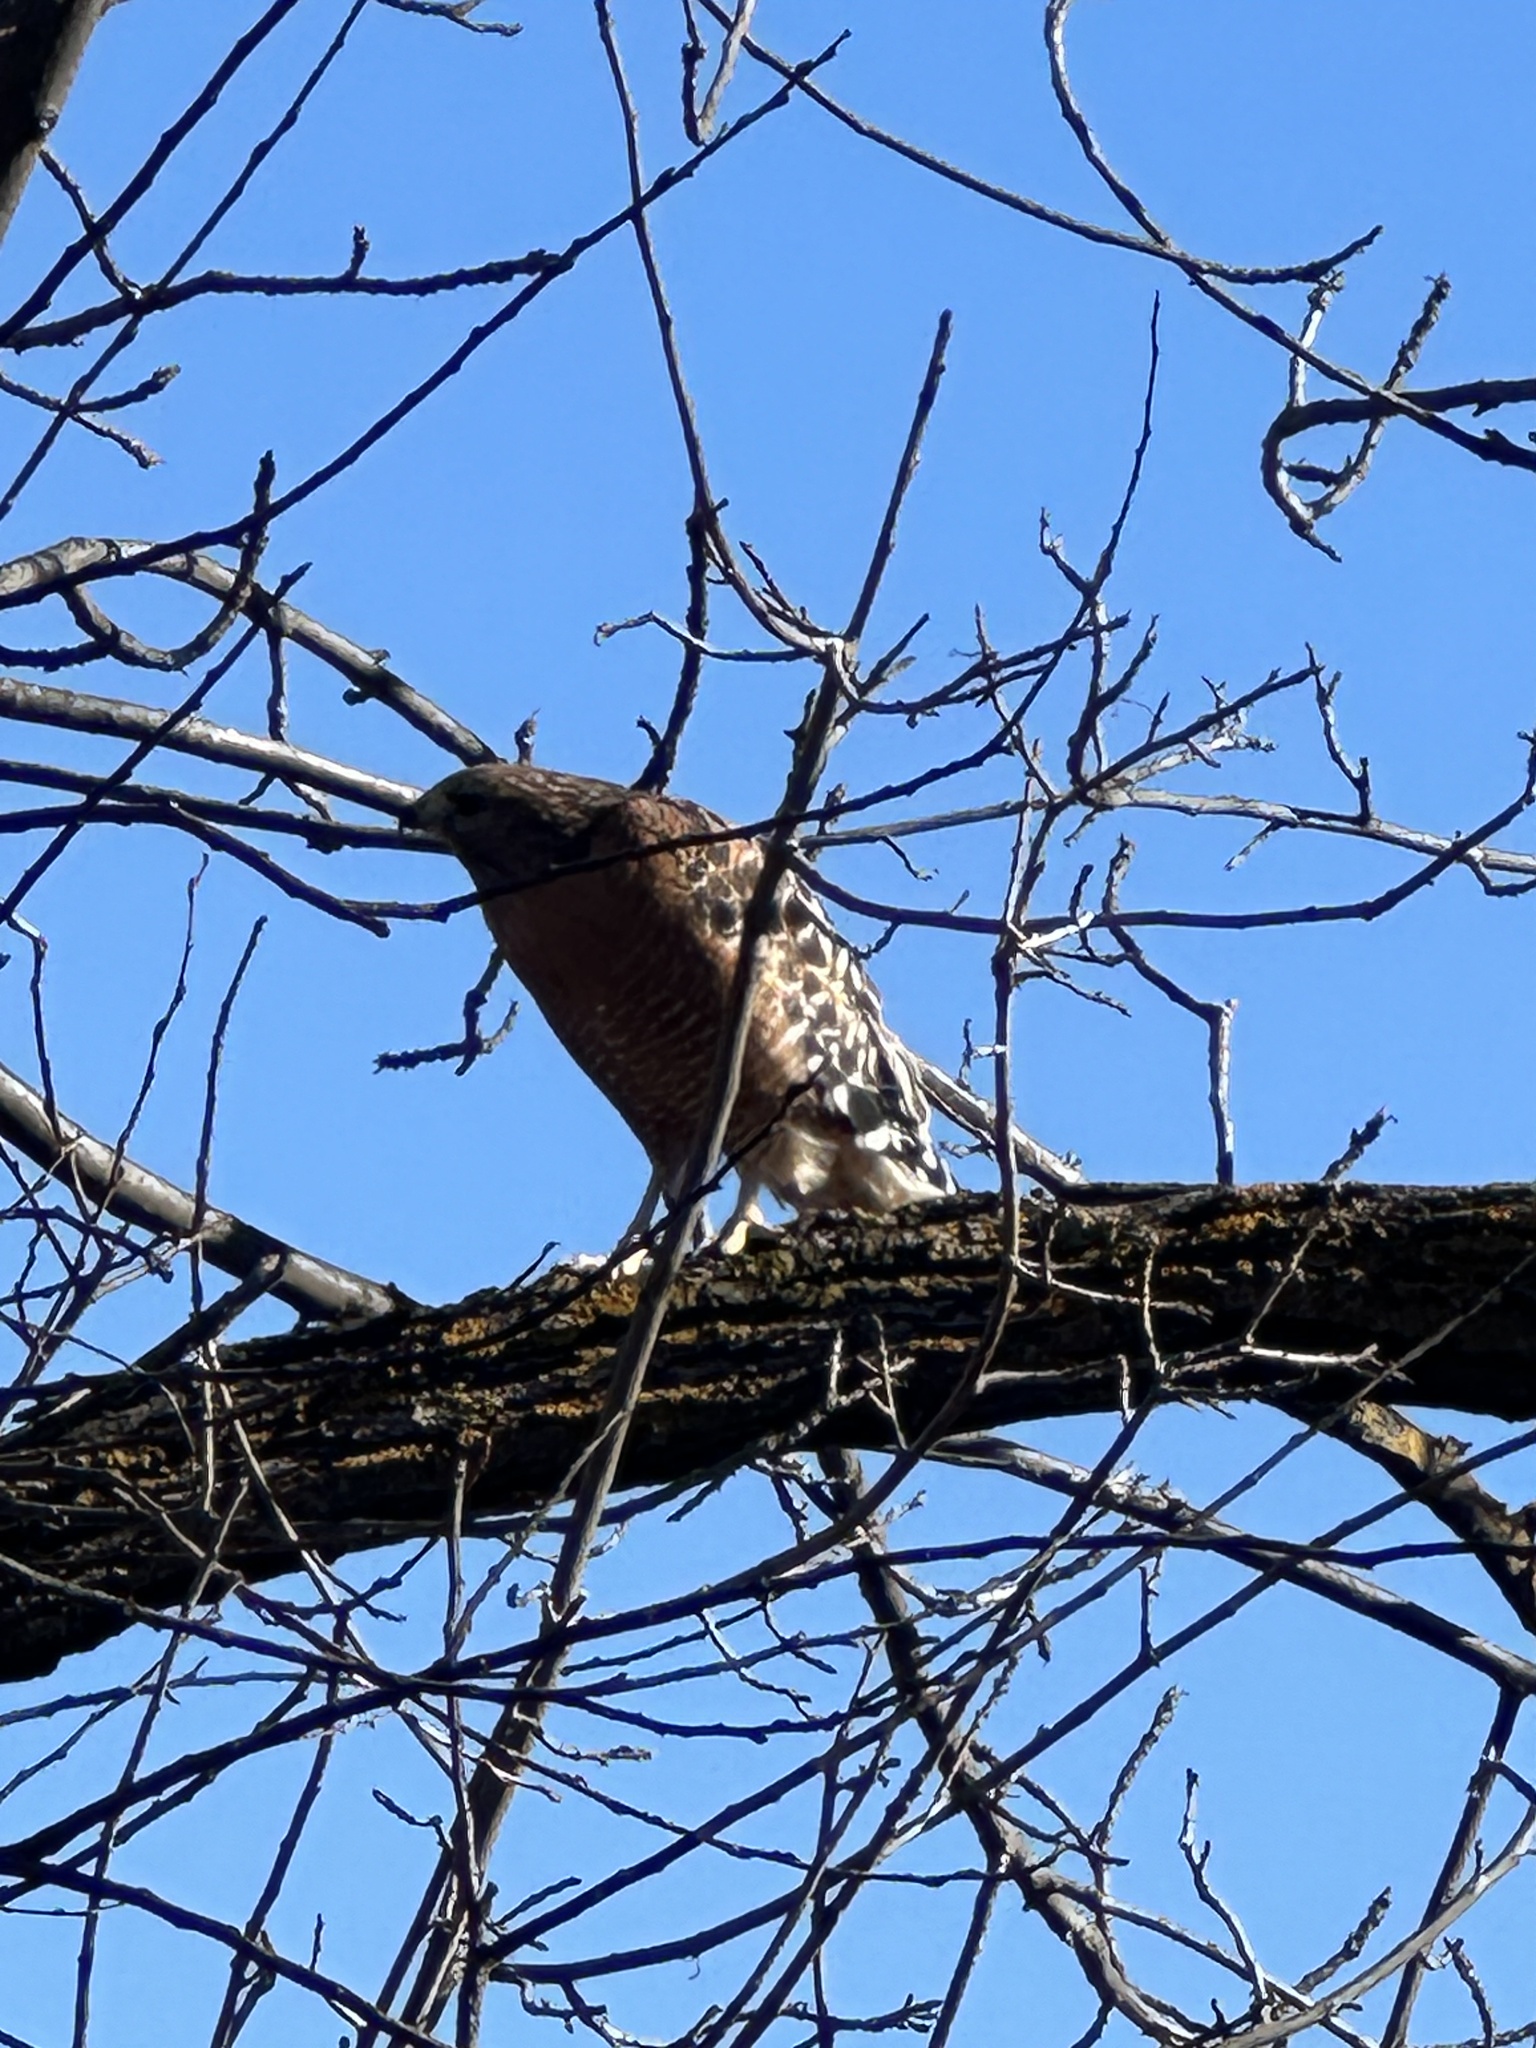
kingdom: Animalia
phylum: Chordata
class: Aves
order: Accipitriformes
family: Accipitridae
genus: Buteo
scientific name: Buteo lineatus
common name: Red-shouldered hawk
